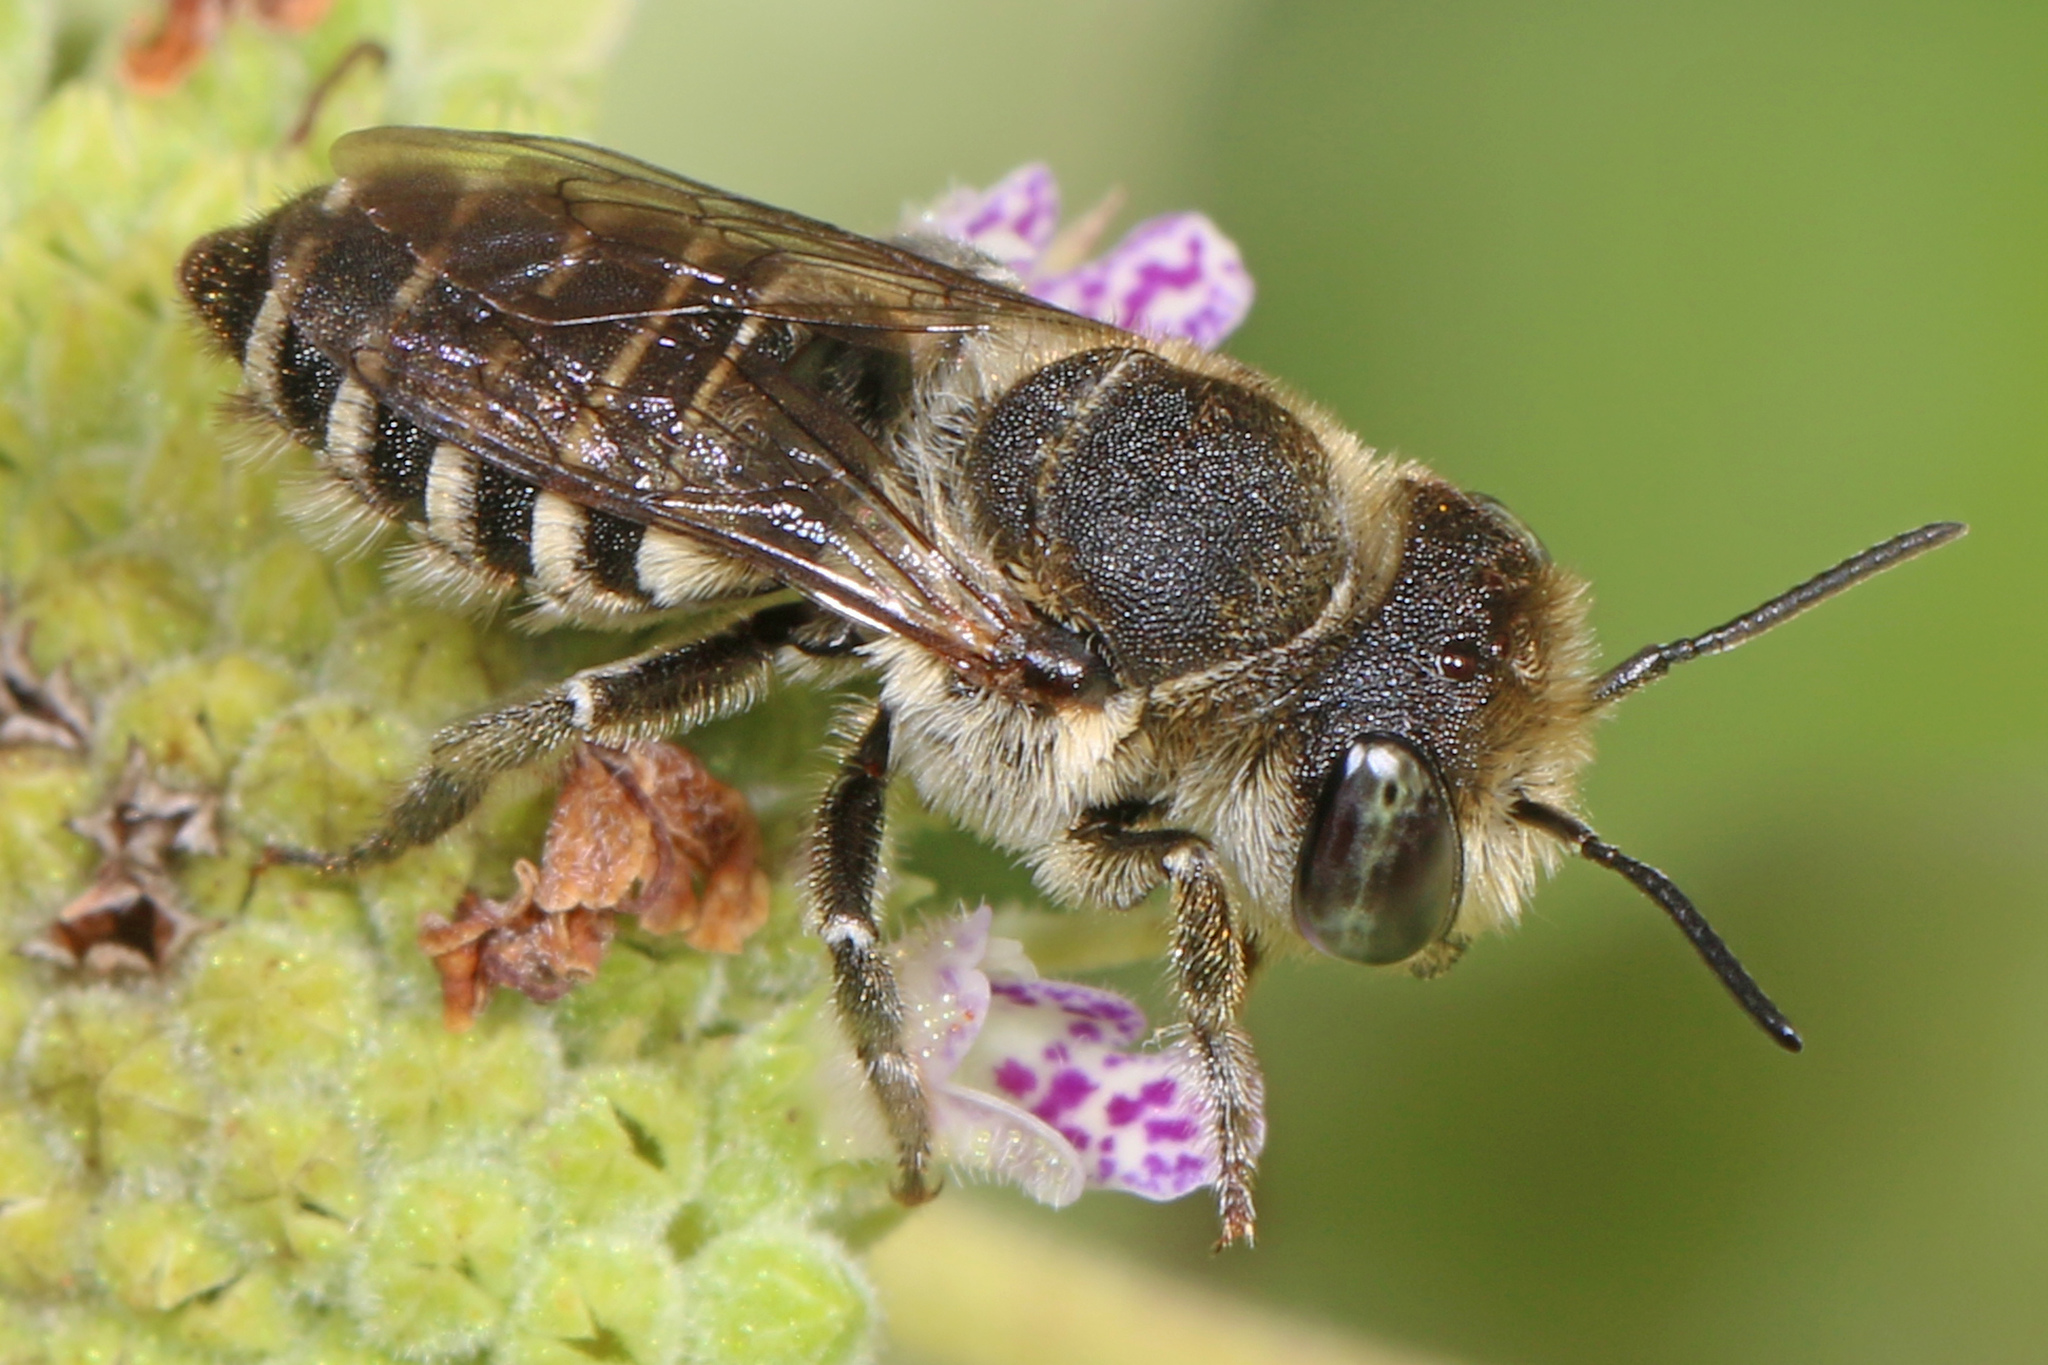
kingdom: Animalia
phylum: Arthropoda
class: Insecta
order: Hymenoptera
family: Megachilidae
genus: Megachile
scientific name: Megachile rotundata
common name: Alfalfa leafcutting bee
